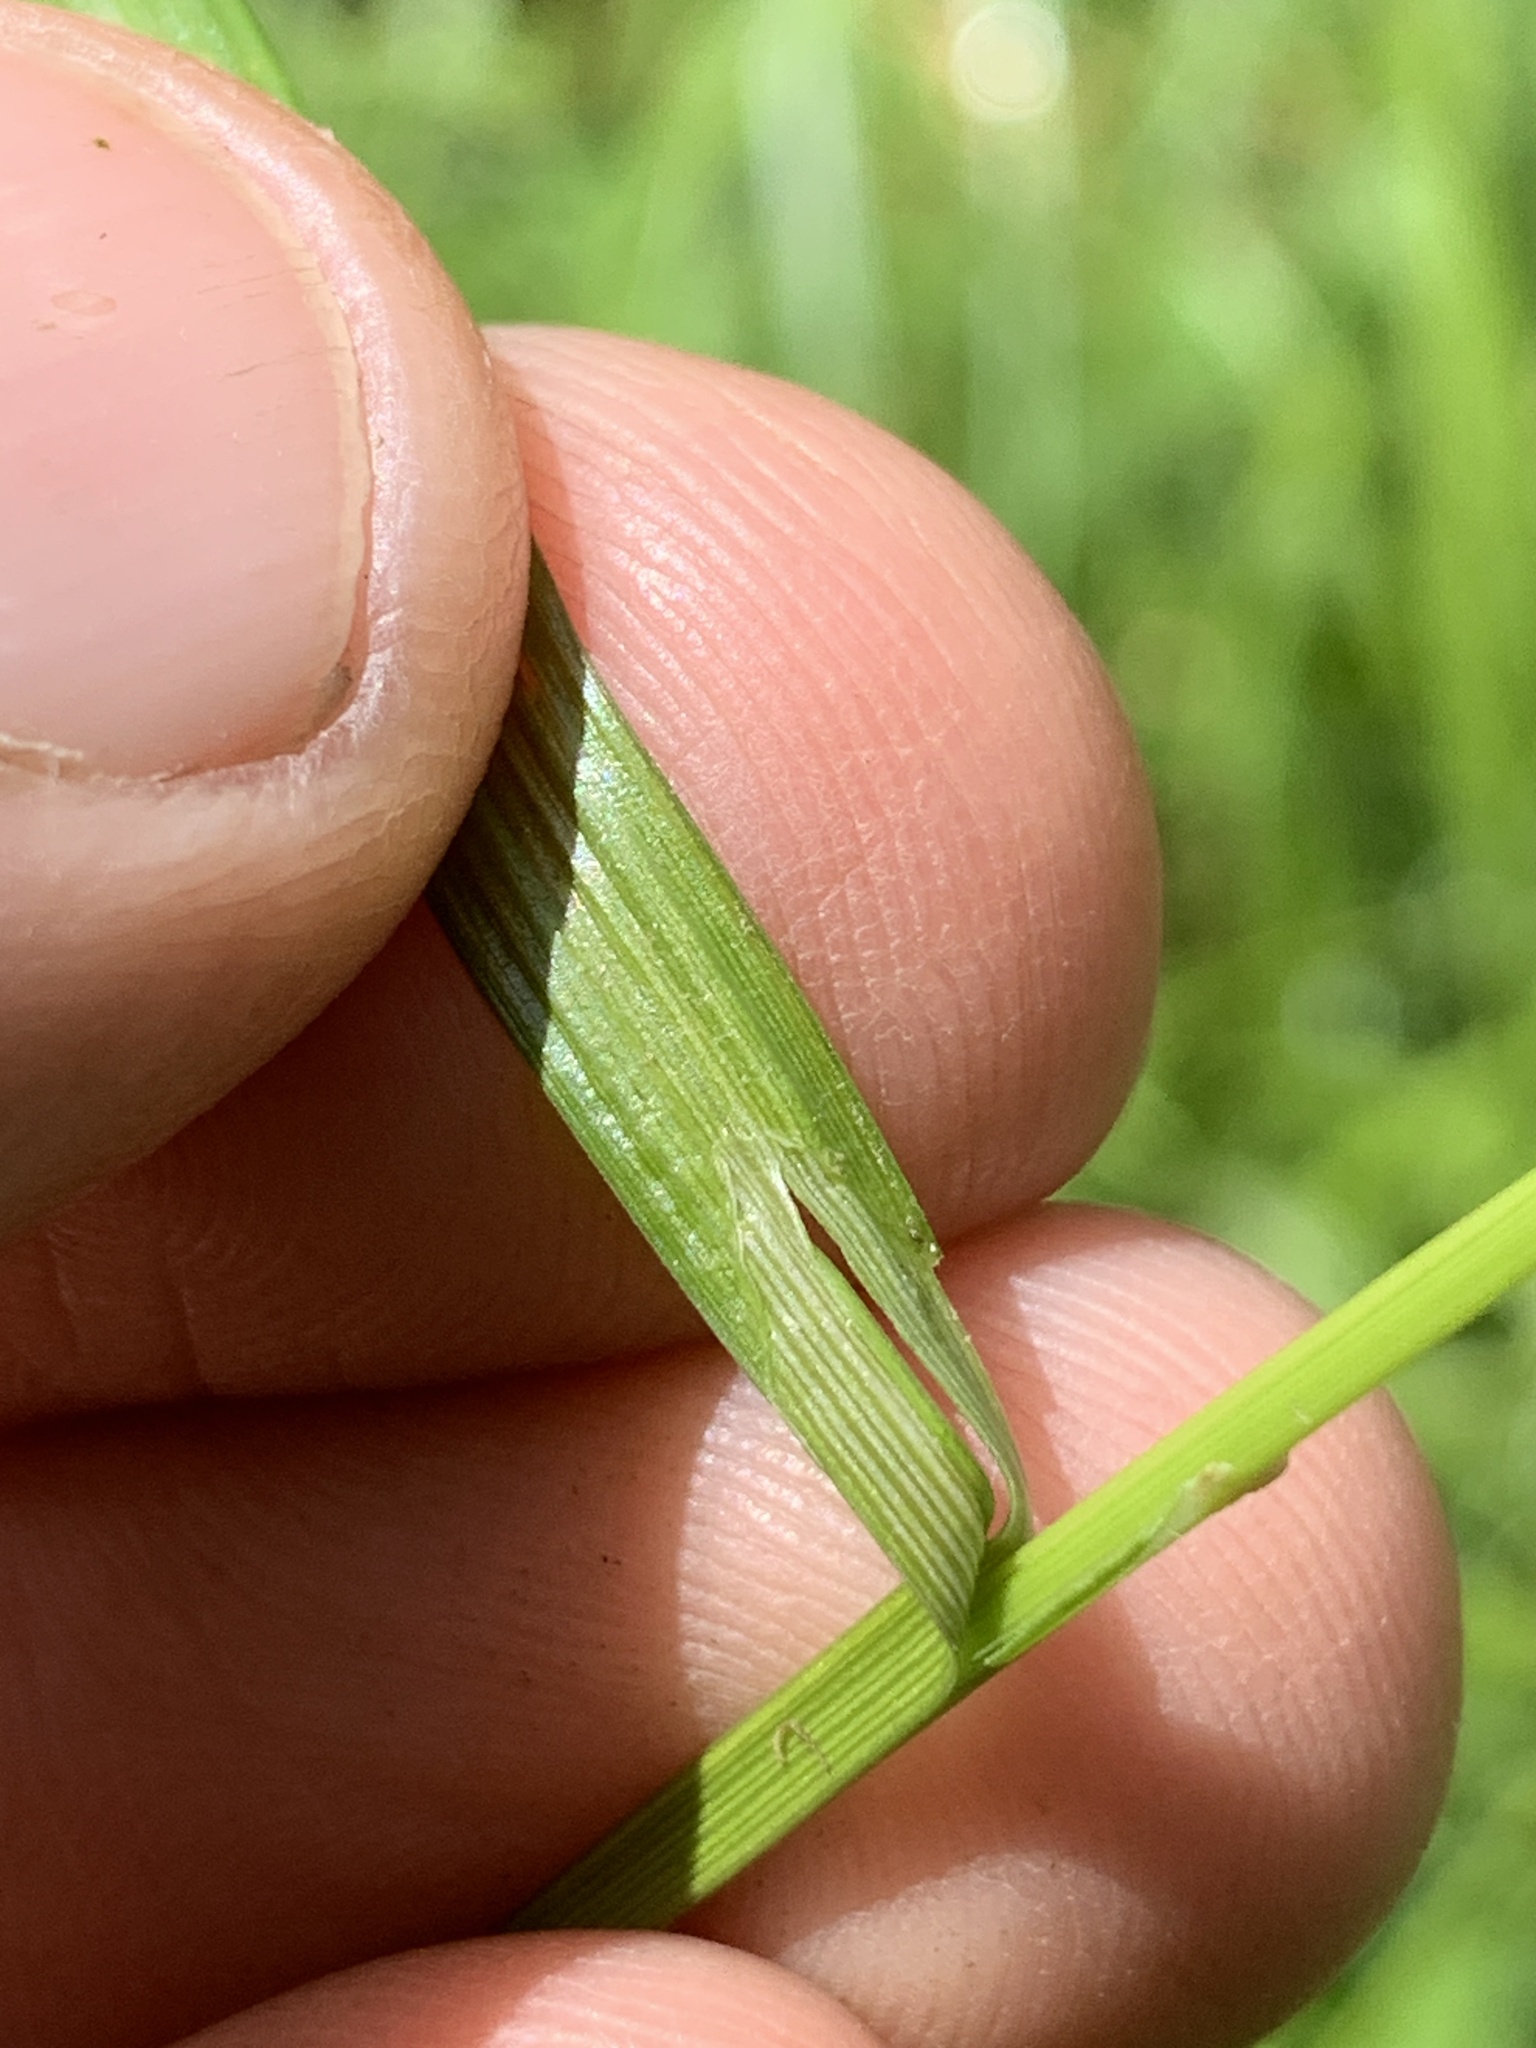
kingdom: Plantae
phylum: Tracheophyta
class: Liliopsida
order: Poales
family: Cyperaceae
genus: Carex
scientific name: Carex davisii
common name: Davis' sedge
